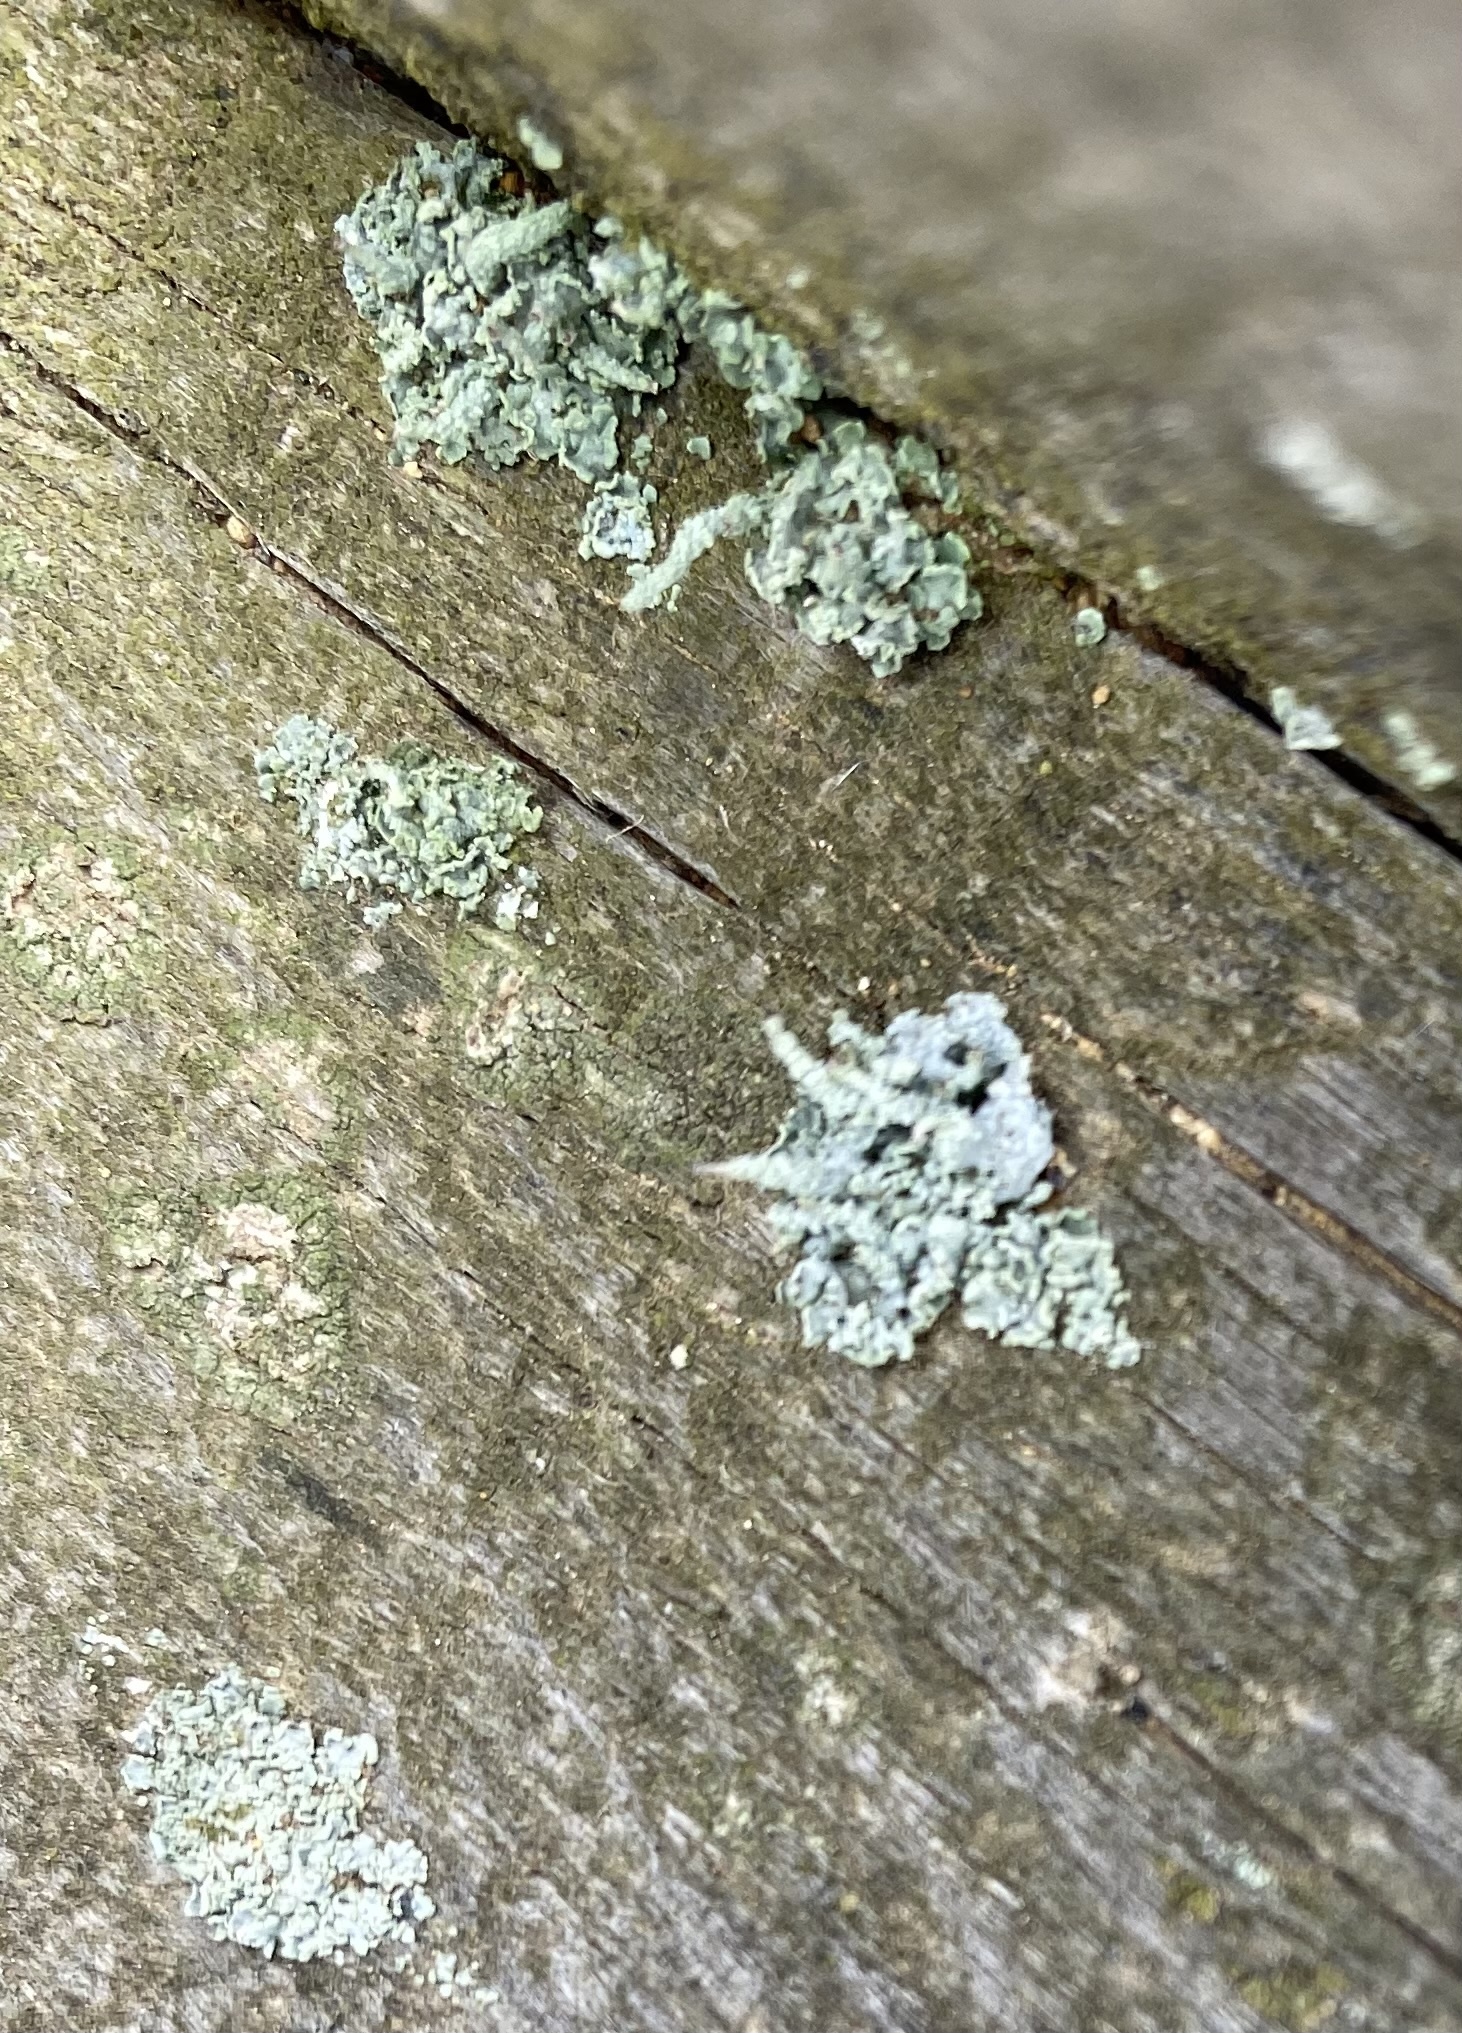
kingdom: Fungi
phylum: Ascomycota
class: Lecanoromycetes
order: Lecanorales
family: Cladoniaceae
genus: Cladonia
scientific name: Cladonia
